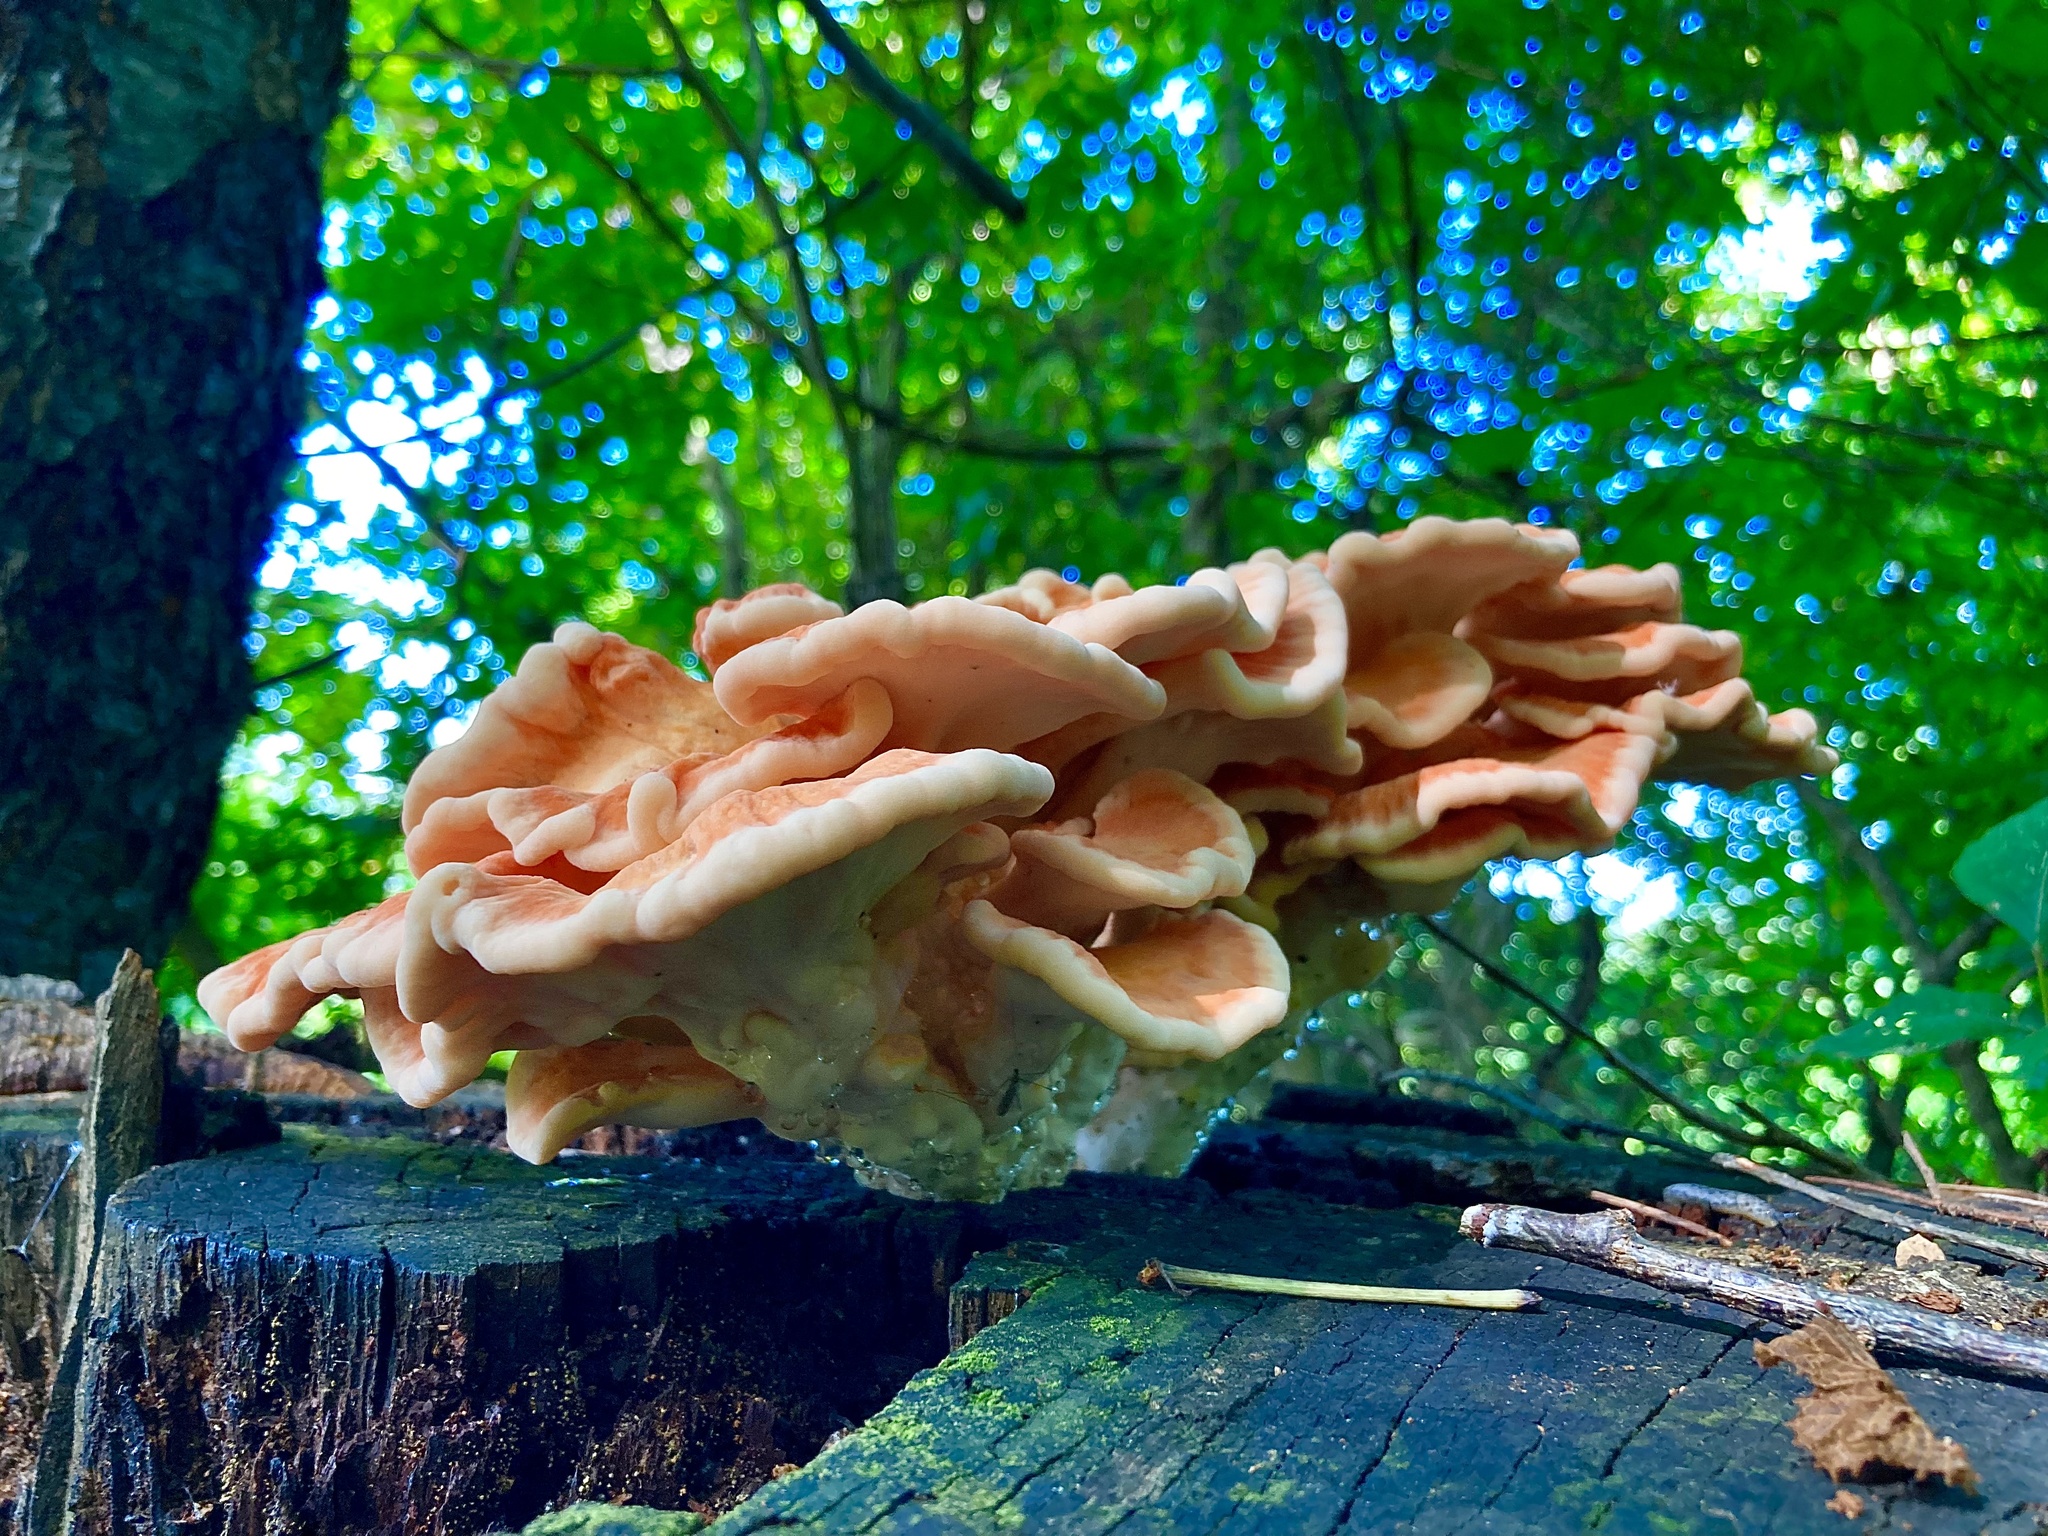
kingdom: Fungi
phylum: Basidiomycota
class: Agaricomycetes
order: Polyporales
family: Laetiporaceae
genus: Laetiporus
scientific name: Laetiporus sulphureus
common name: Chicken of the woods
